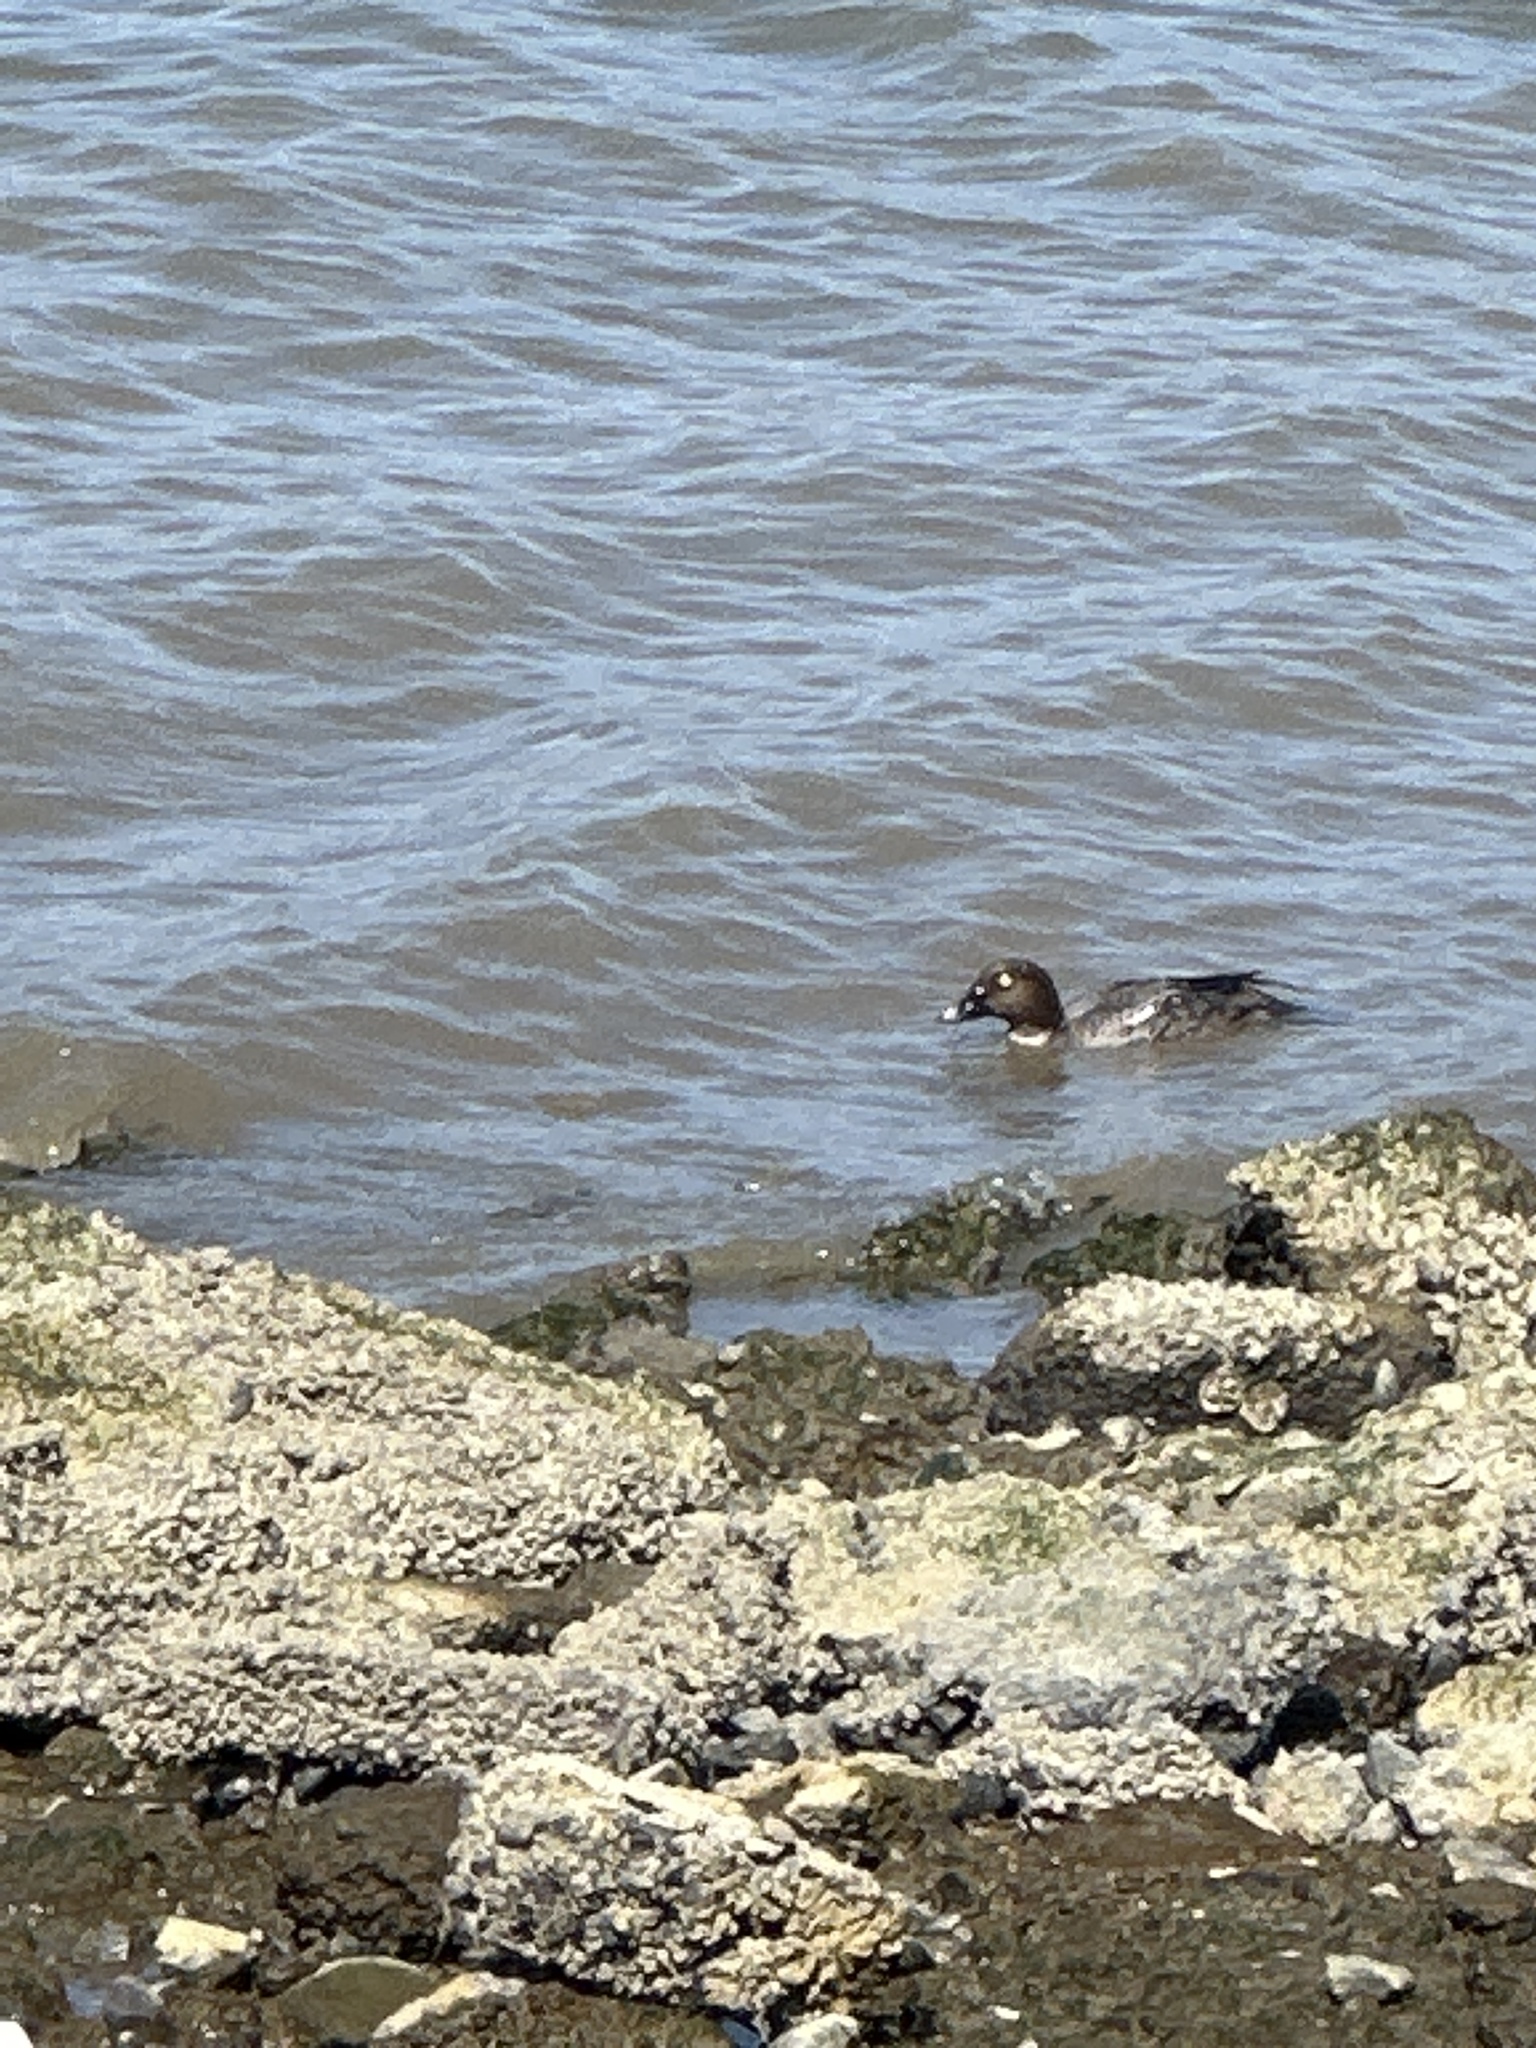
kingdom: Animalia
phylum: Chordata
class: Aves
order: Anseriformes
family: Anatidae
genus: Bucephala
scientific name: Bucephala clangula
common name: Common goldeneye
